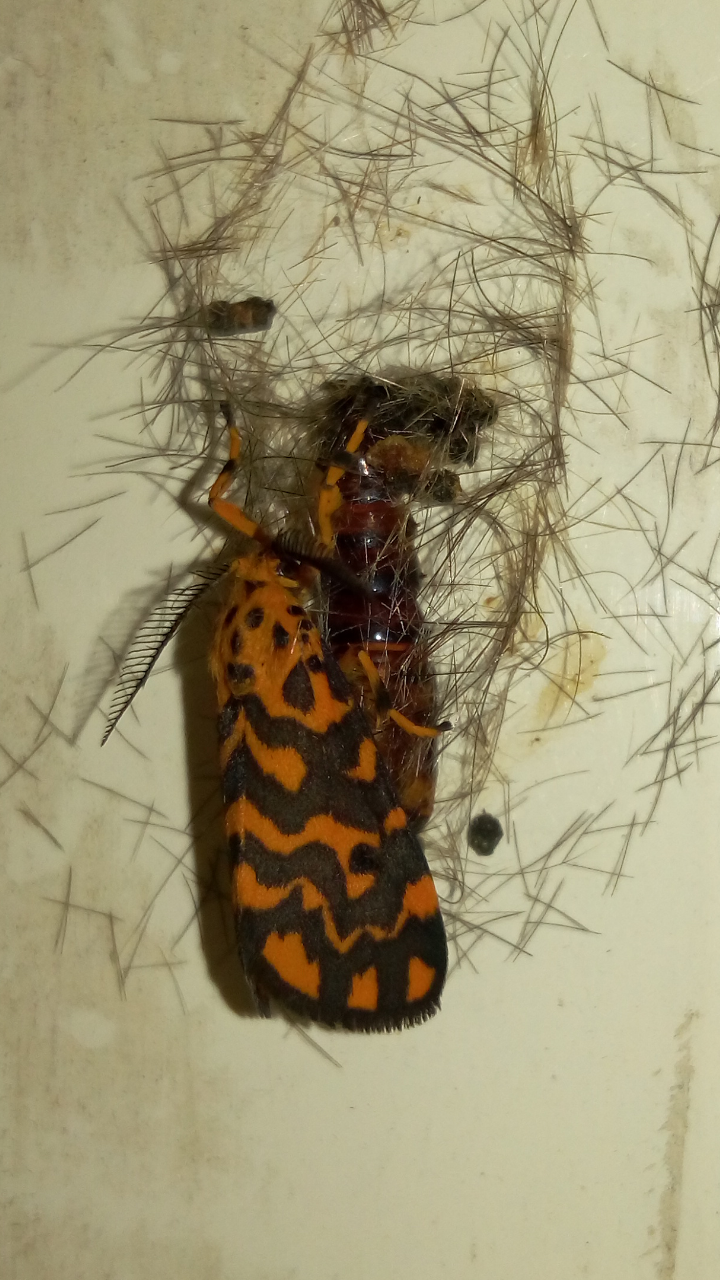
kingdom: Animalia
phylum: Arthropoda
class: Insecta
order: Lepidoptera
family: Erebidae
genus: Nepita
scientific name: Nepita conferta
